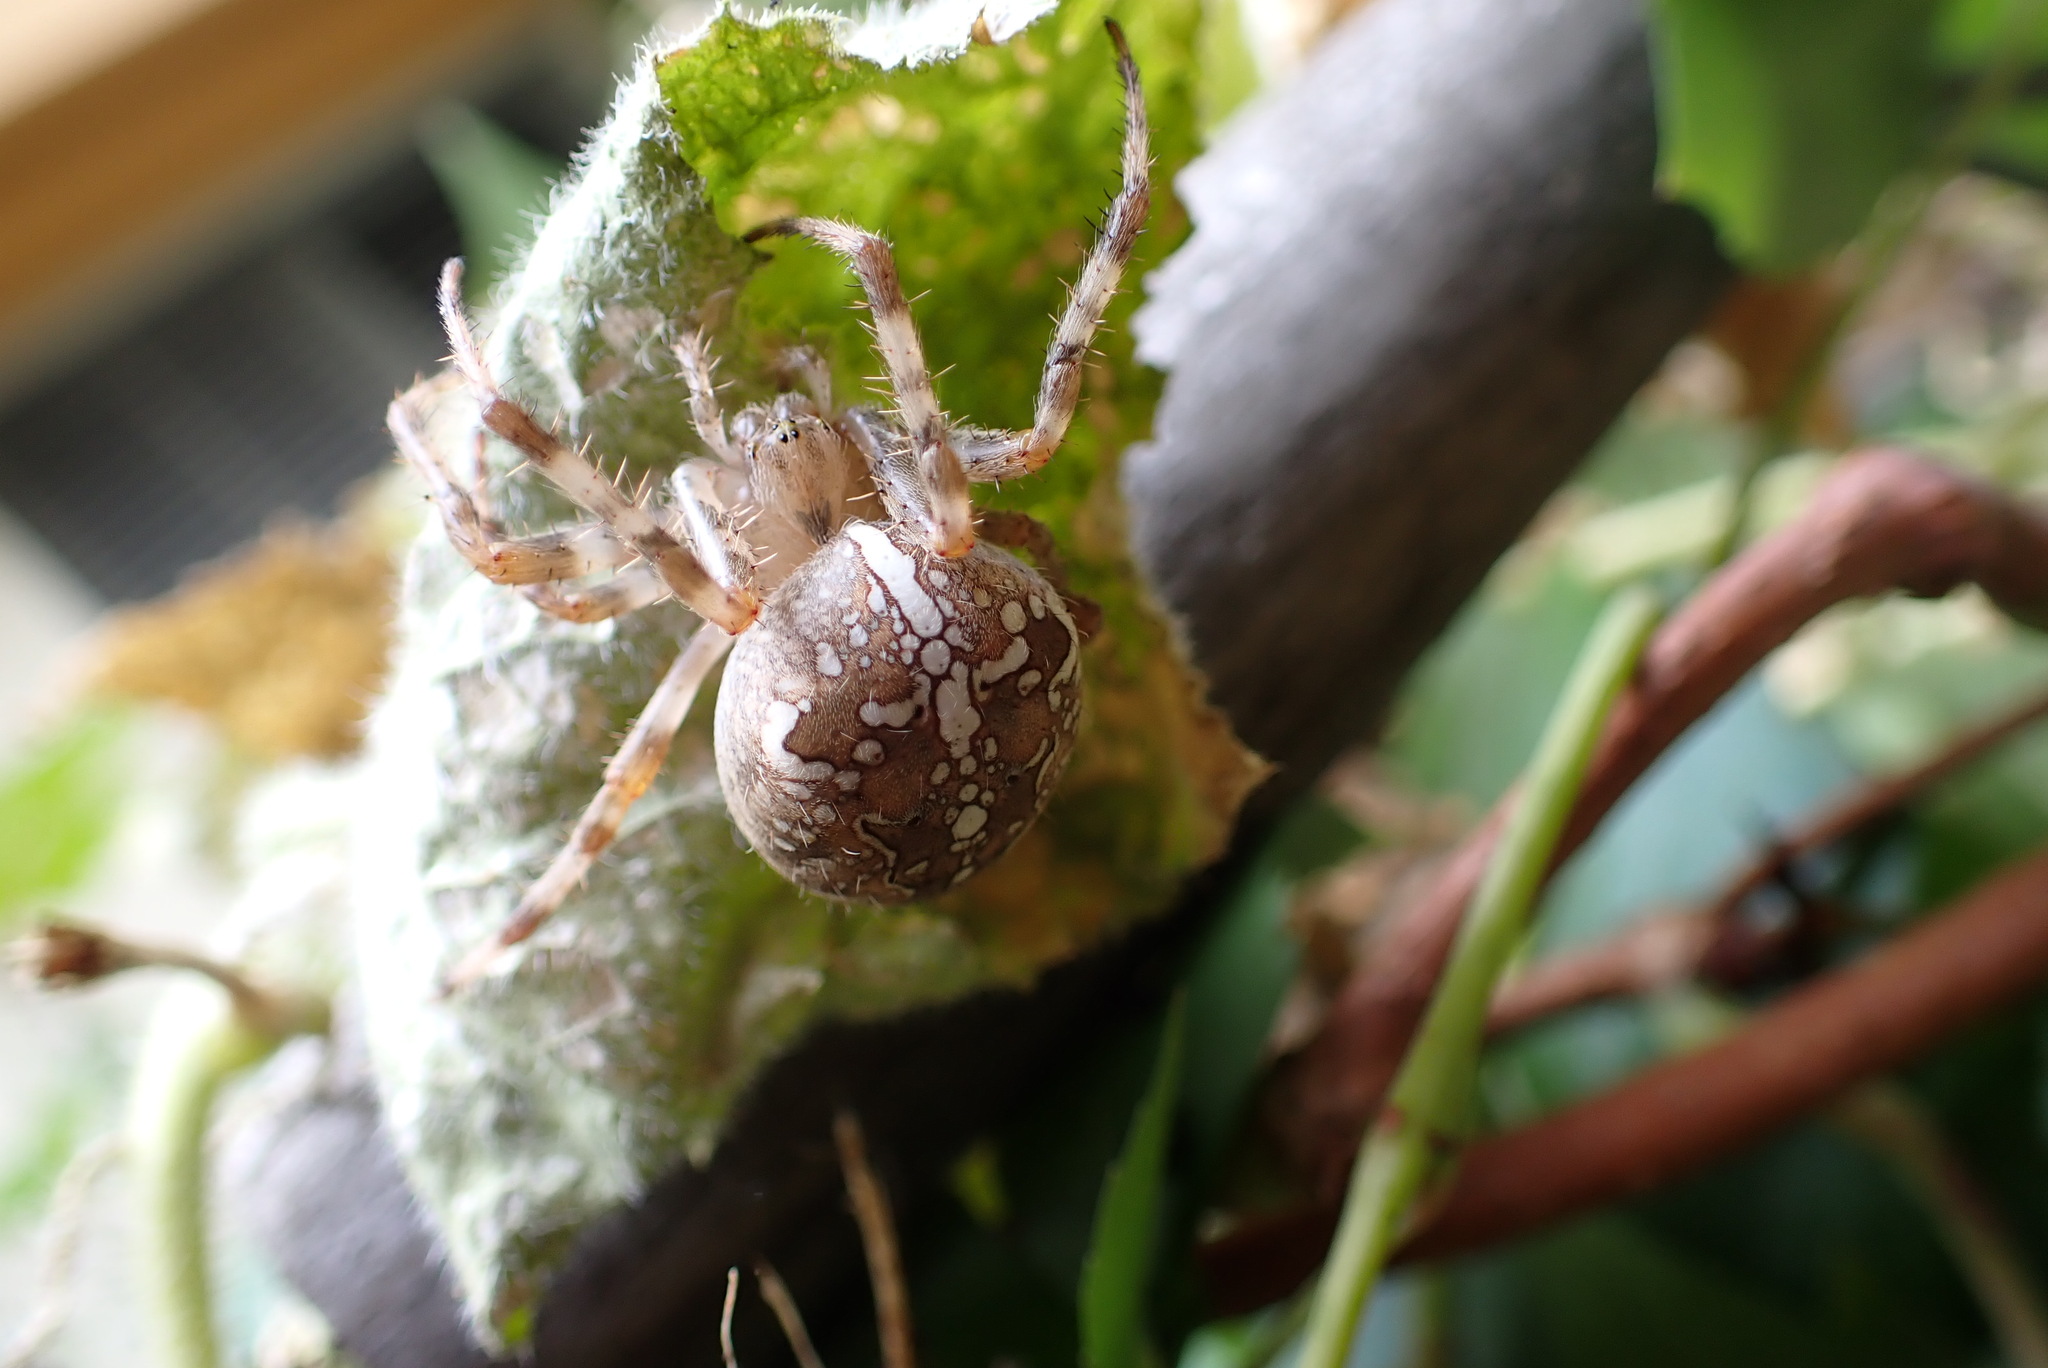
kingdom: Animalia
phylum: Arthropoda
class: Arachnida
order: Araneae
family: Araneidae
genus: Araneus
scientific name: Araneus diadematus
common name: Cross orbweaver
